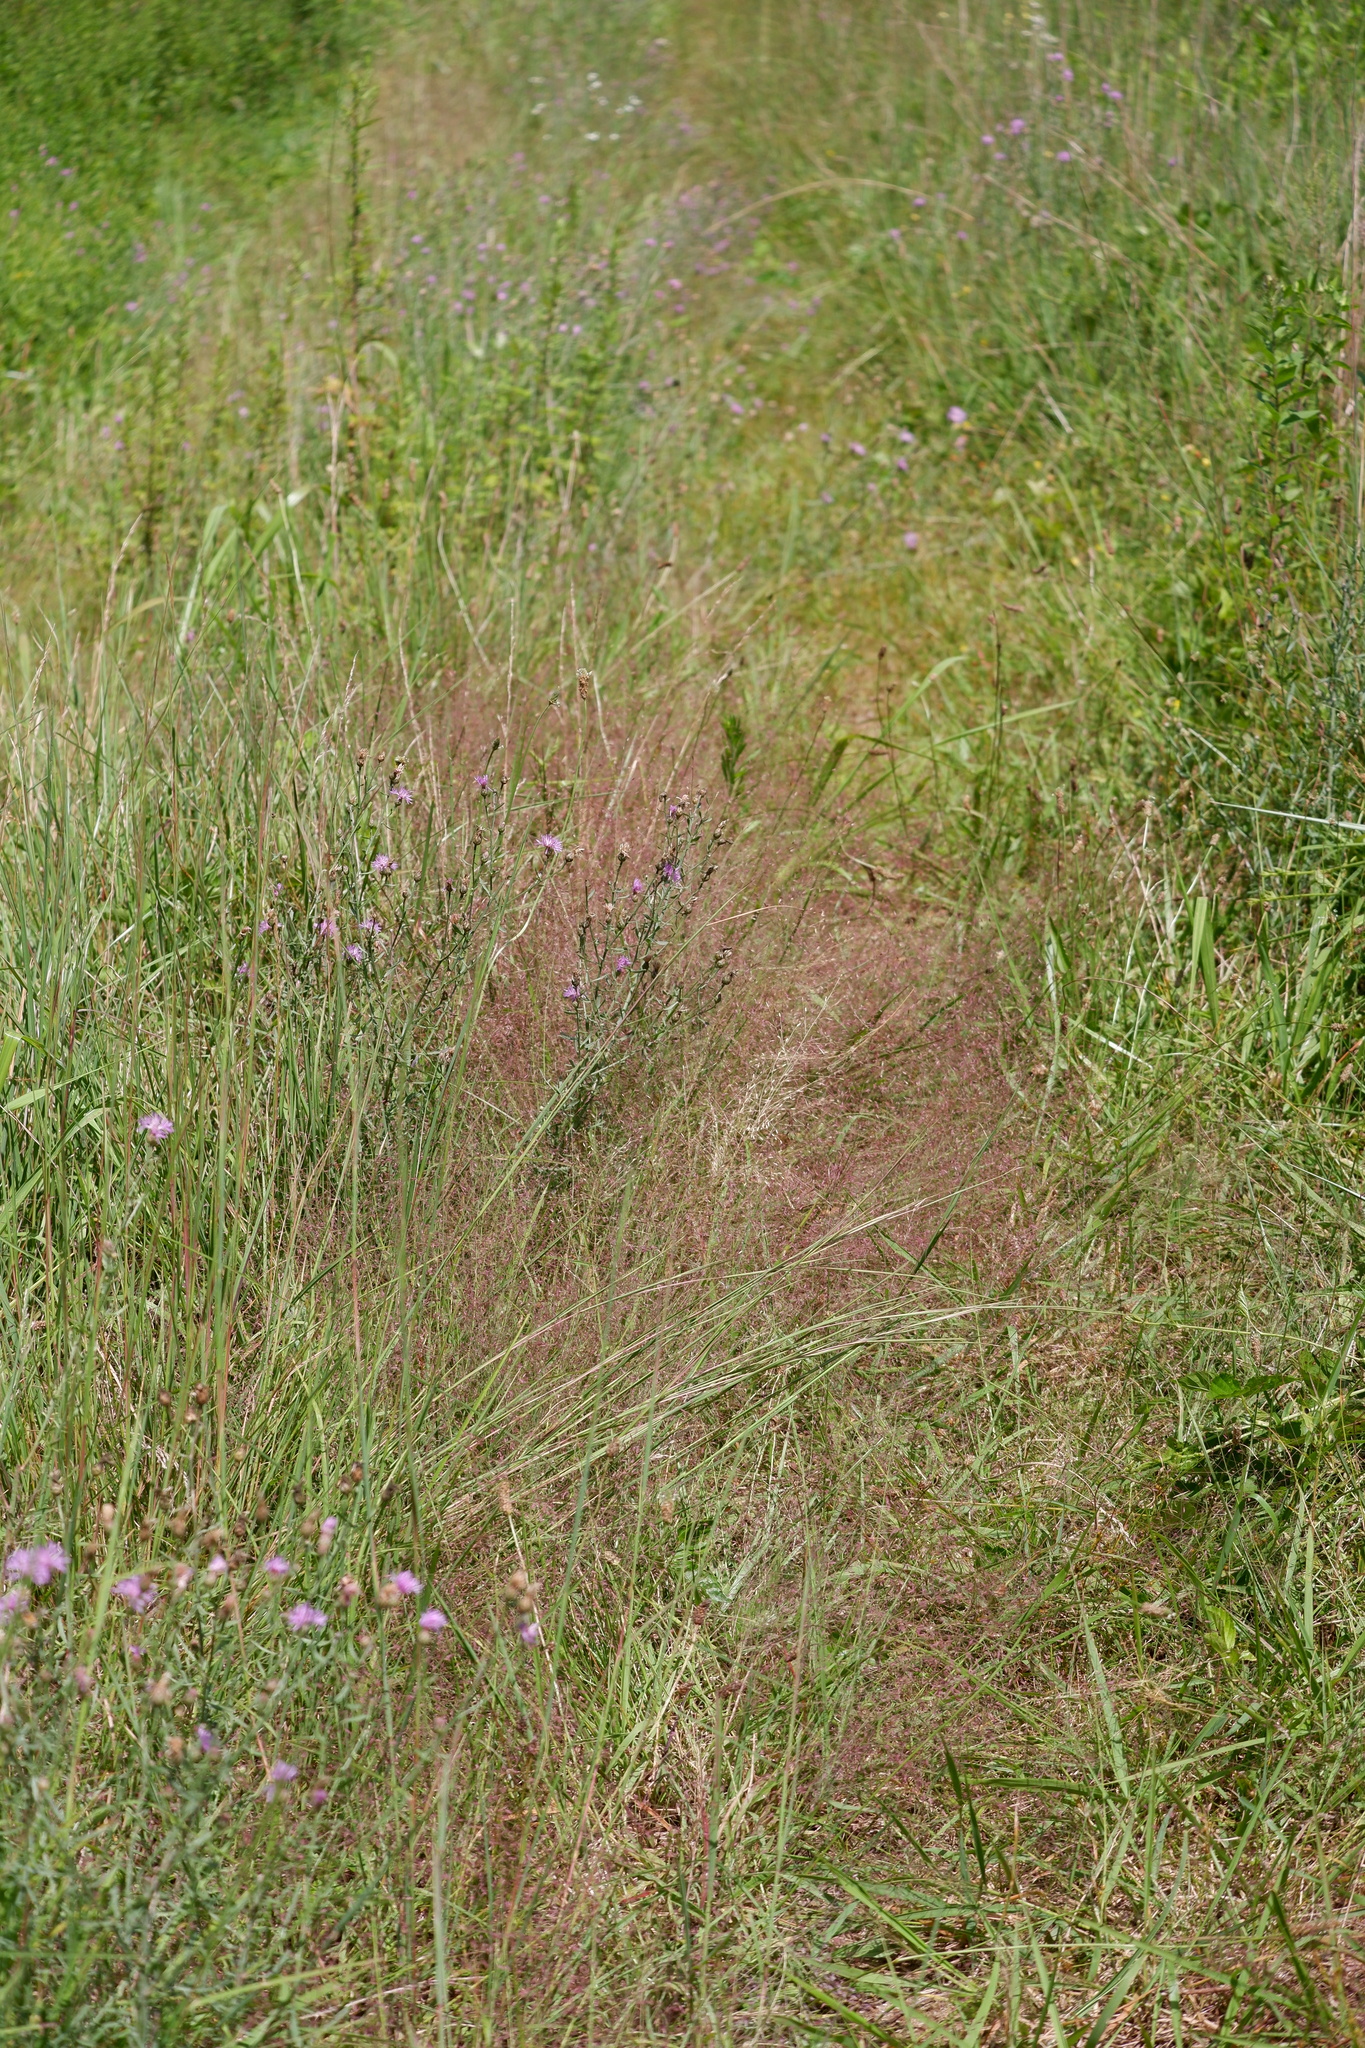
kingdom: Plantae
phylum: Tracheophyta
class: Liliopsida
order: Poales
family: Poaceae
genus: Eragrostis
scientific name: Eragrostis spectabilis
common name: Petticoat-climber
